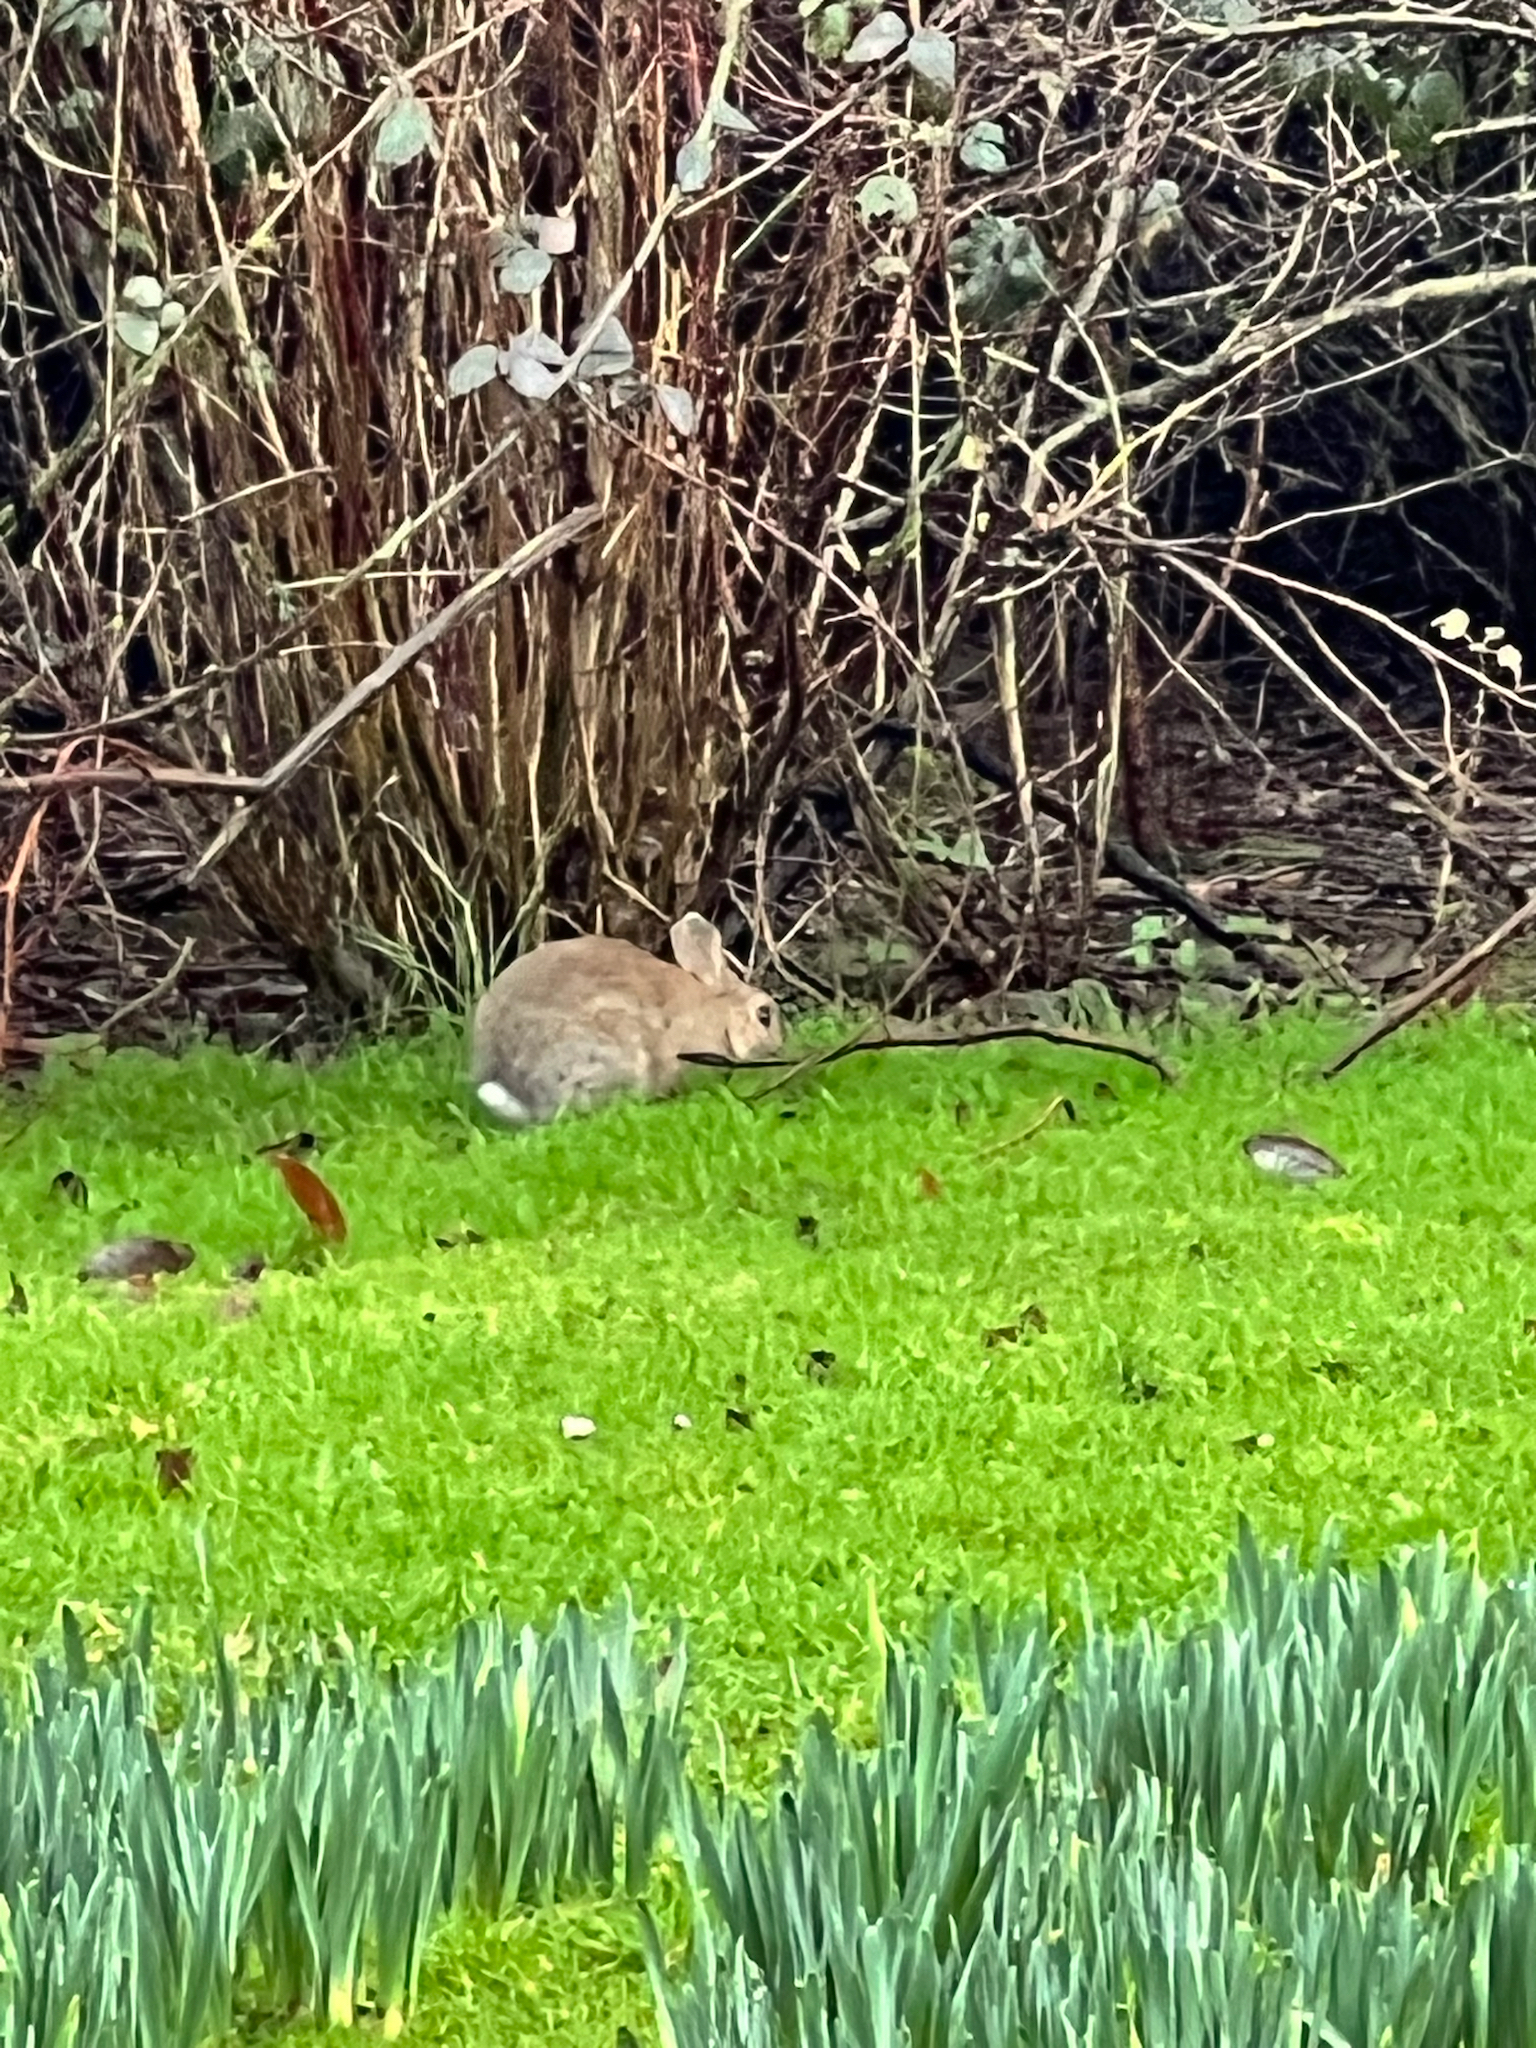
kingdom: Animalia
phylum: Chordata
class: Mammalia
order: Lagomorpha
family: Leporidae
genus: Oryctolagus
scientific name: Oryctolagus cuniculus
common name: European rabbit
